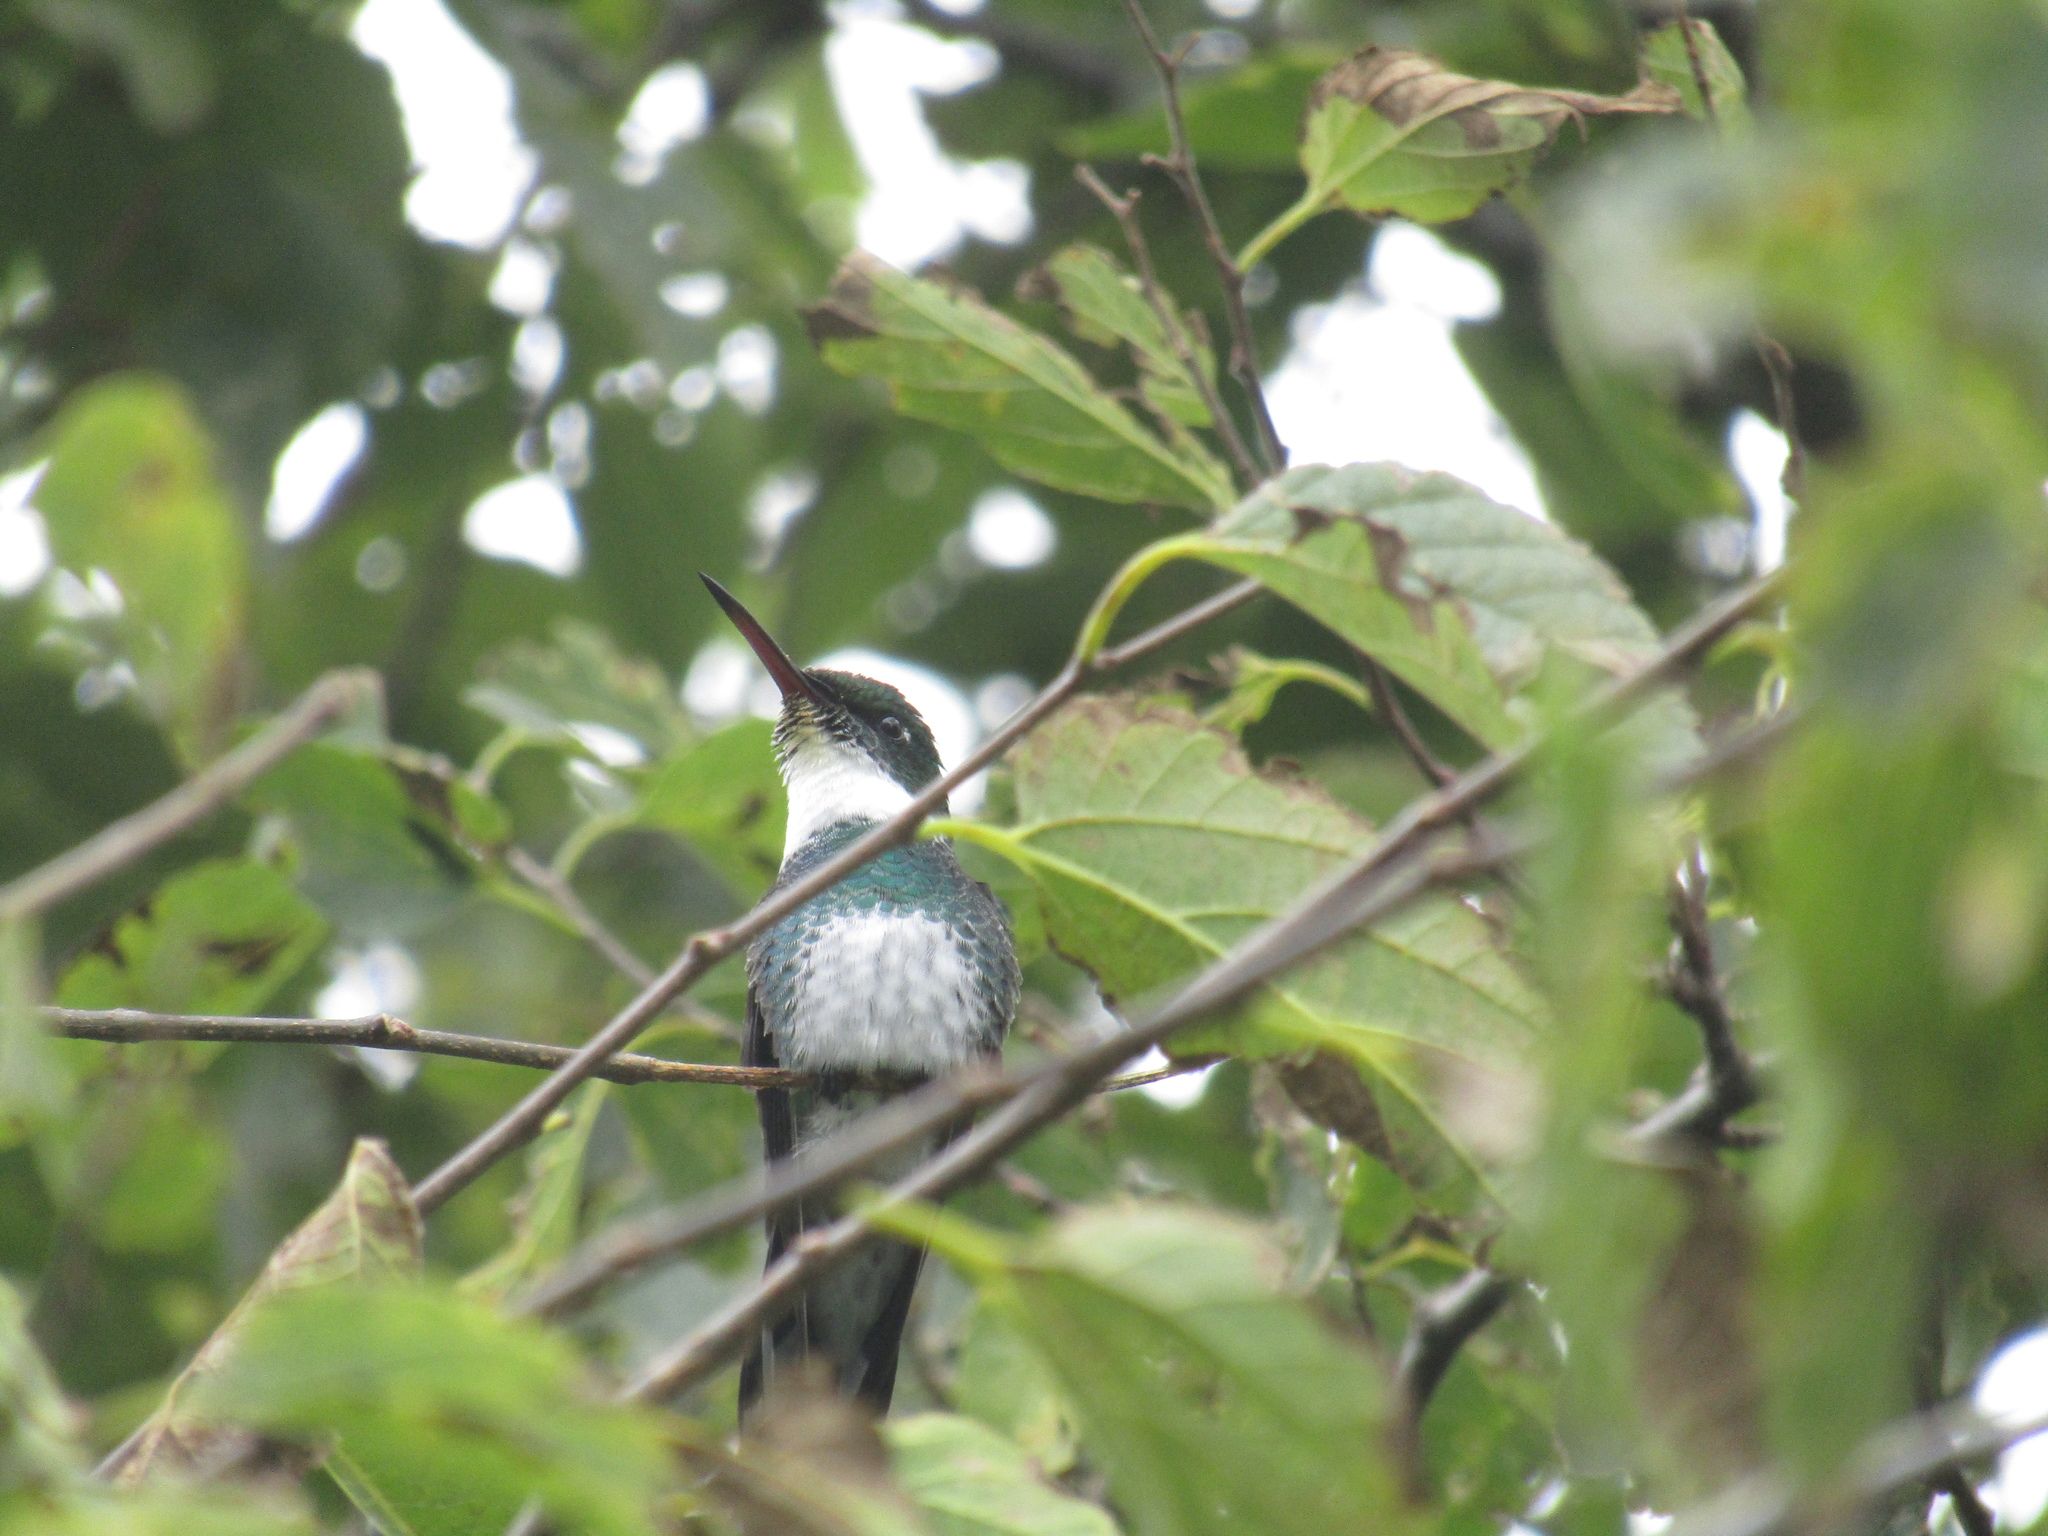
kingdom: Animalia
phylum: Chordata
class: Aves
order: Apodiformes
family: Trochilidae
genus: Leucochloris
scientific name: Leucochloris albicollis
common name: White-throated hummingbird
